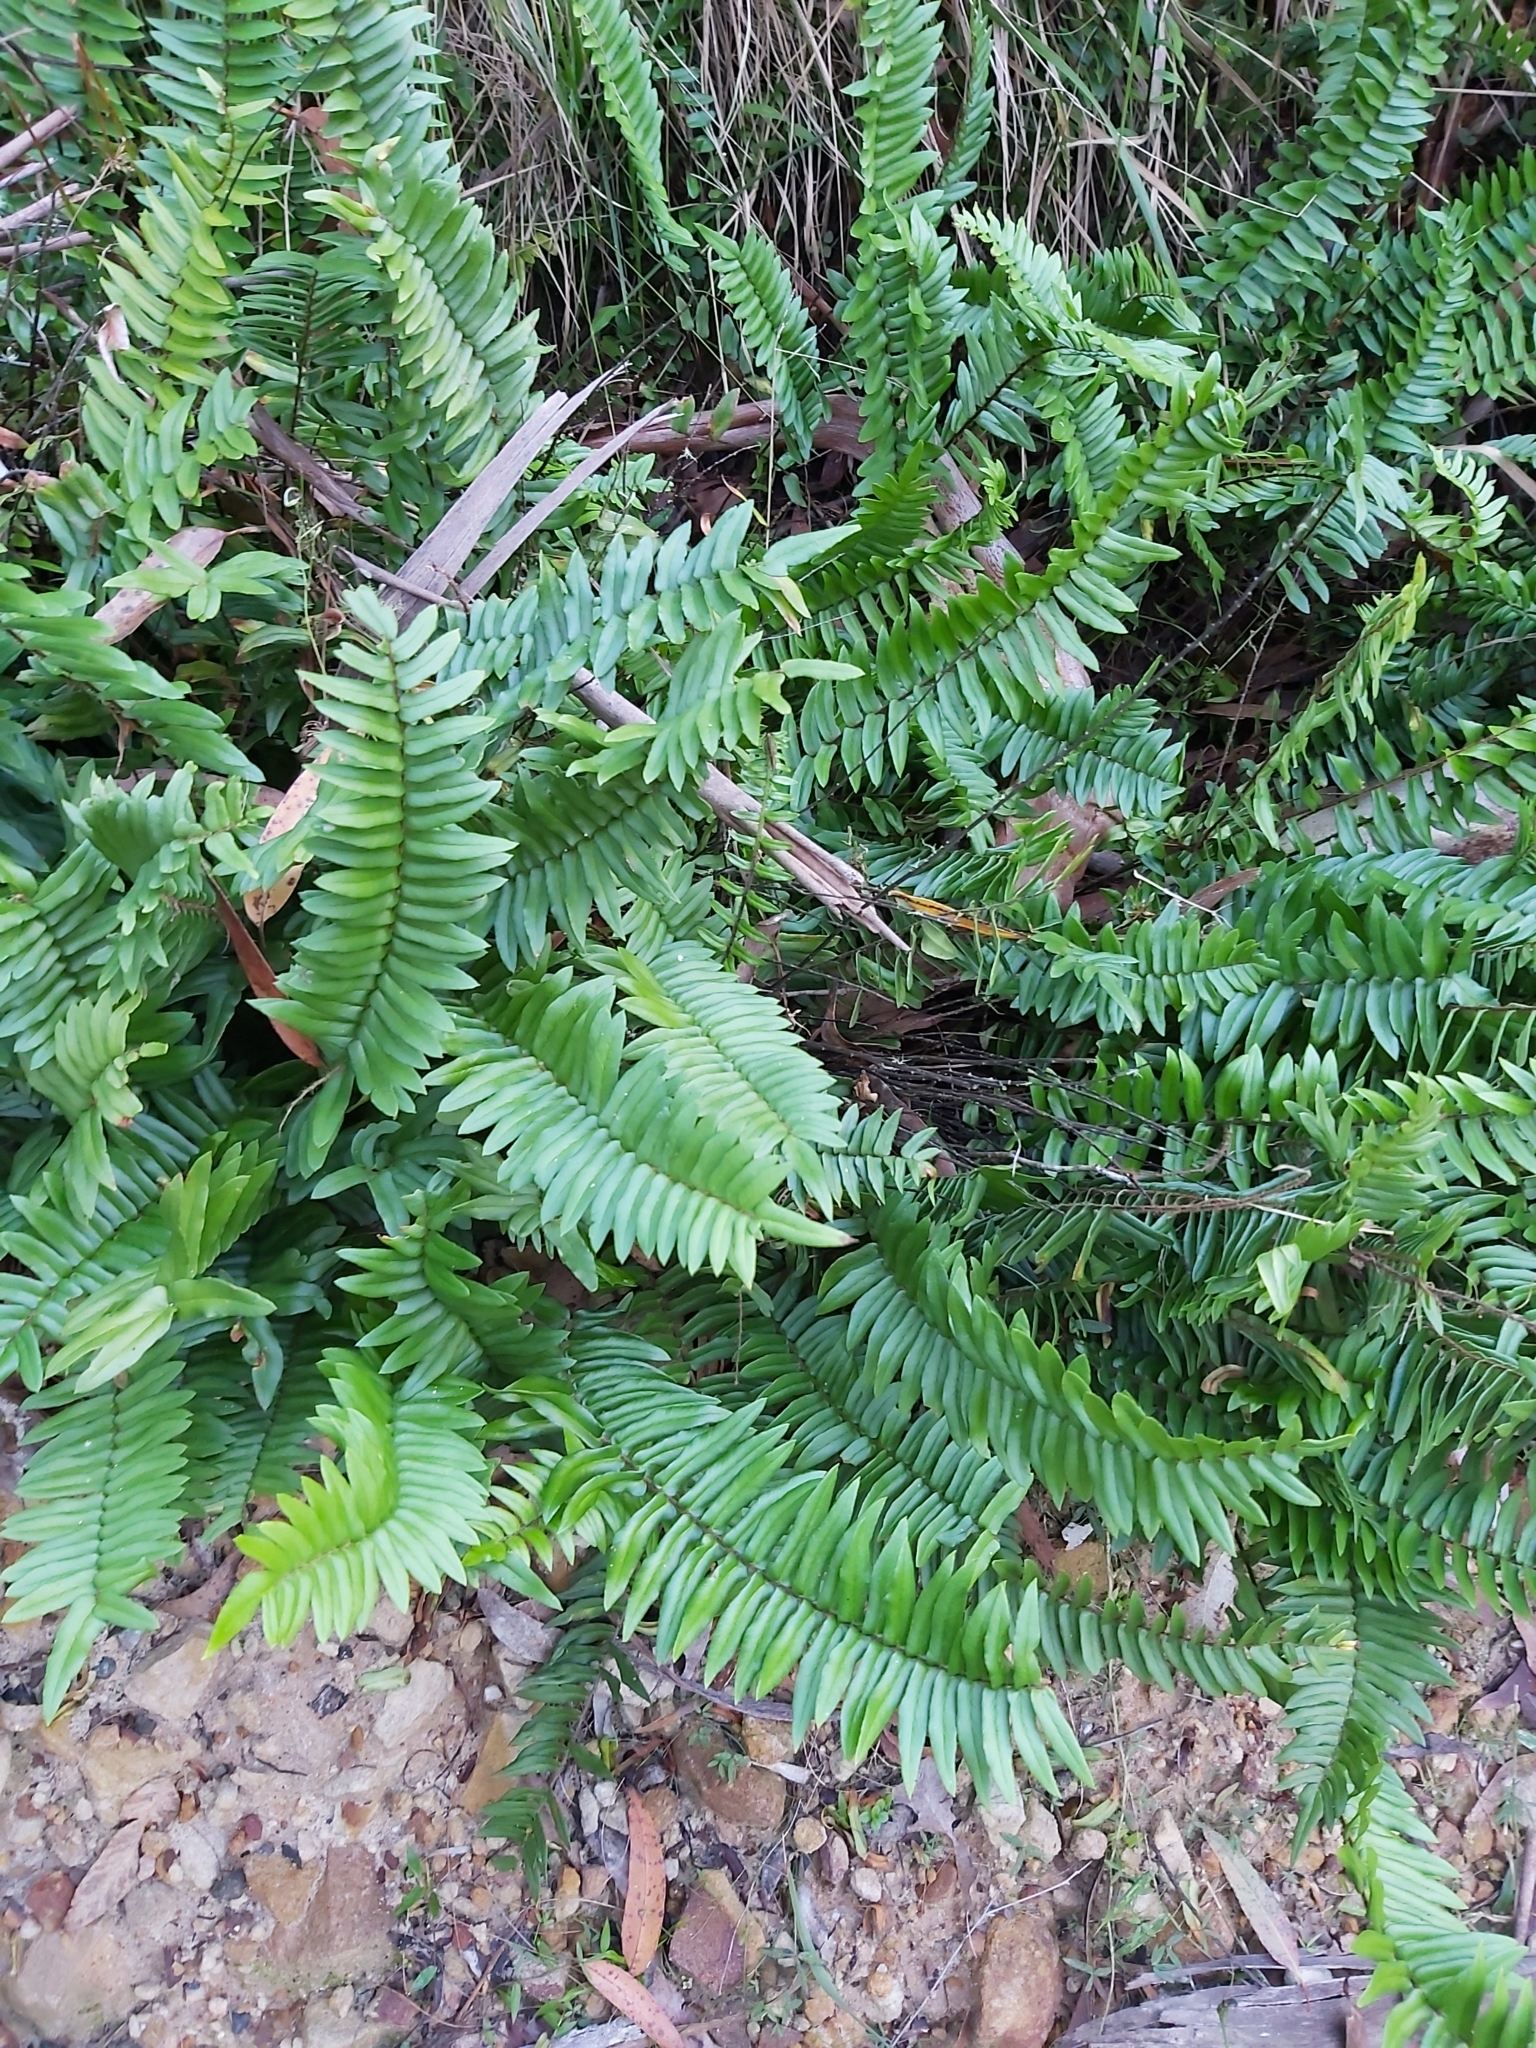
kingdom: Plantae
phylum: Tracheophyta
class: Polypodiopsida
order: Polypodiales
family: Pteridaceae
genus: Pellaea
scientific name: Pellaea falcata
